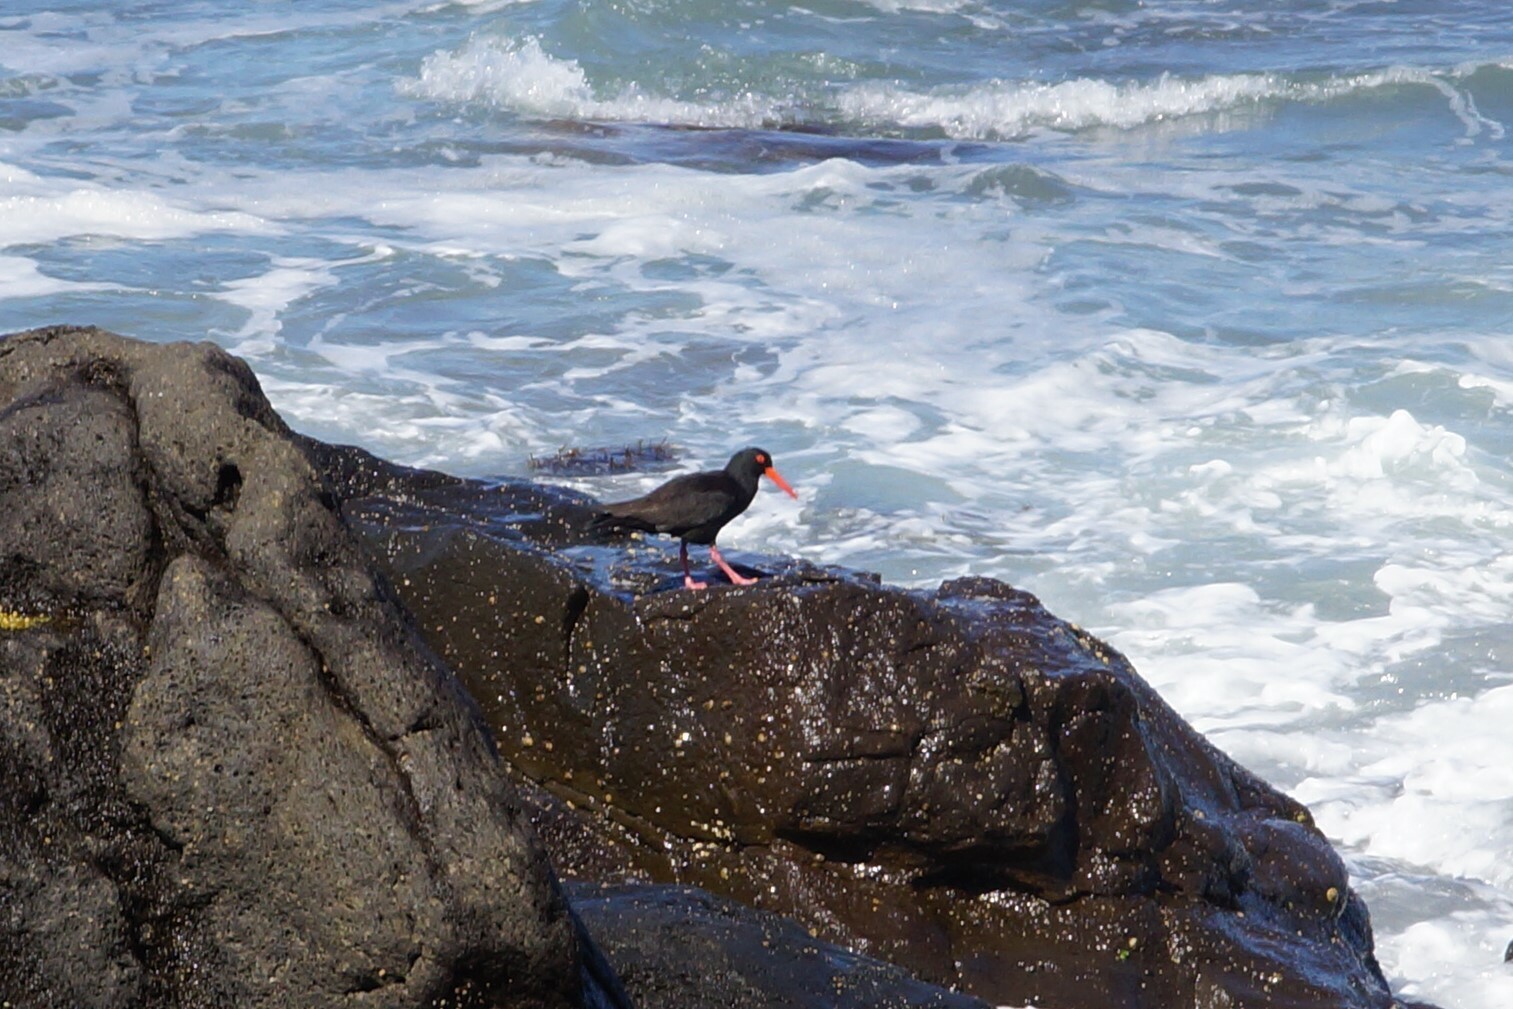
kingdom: Animalia
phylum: Chordata
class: Aves
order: Charadriiformes
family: Haematopodidae
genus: Haematopus
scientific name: Haematopus fuliginosus
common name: Sooty oystercatcher
